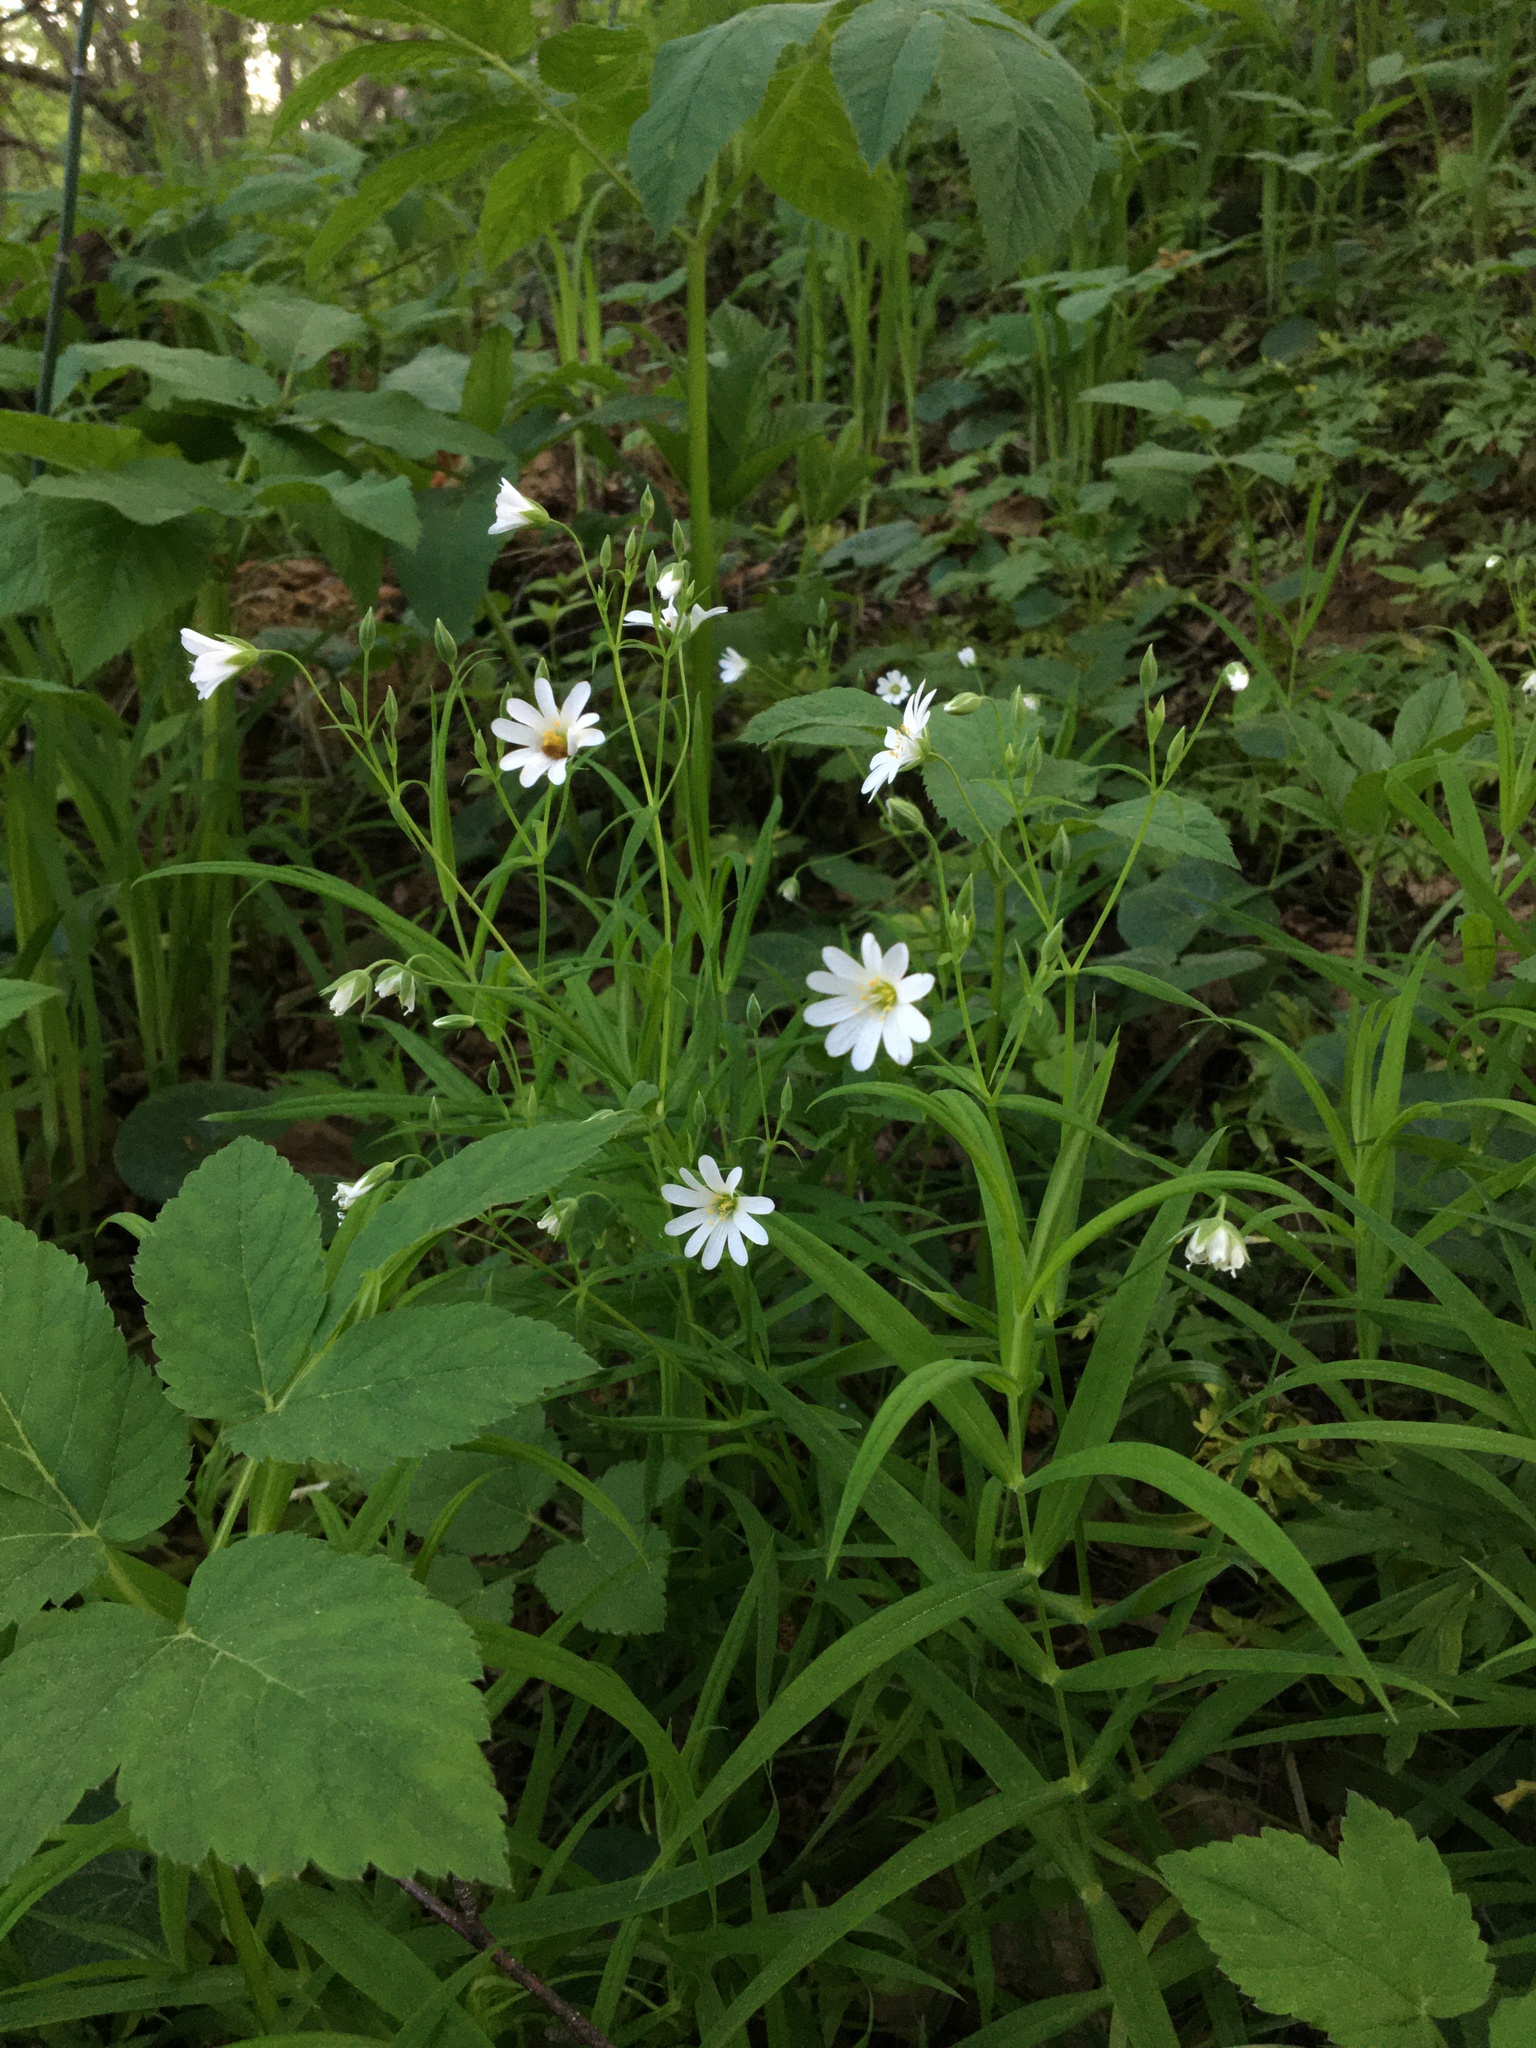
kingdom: Plantae
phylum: Tracheophyta
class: Magnoliopsida
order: Caryophyllales
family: Caryophyllaceae
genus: Rabelera
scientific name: Rabelera holostea
